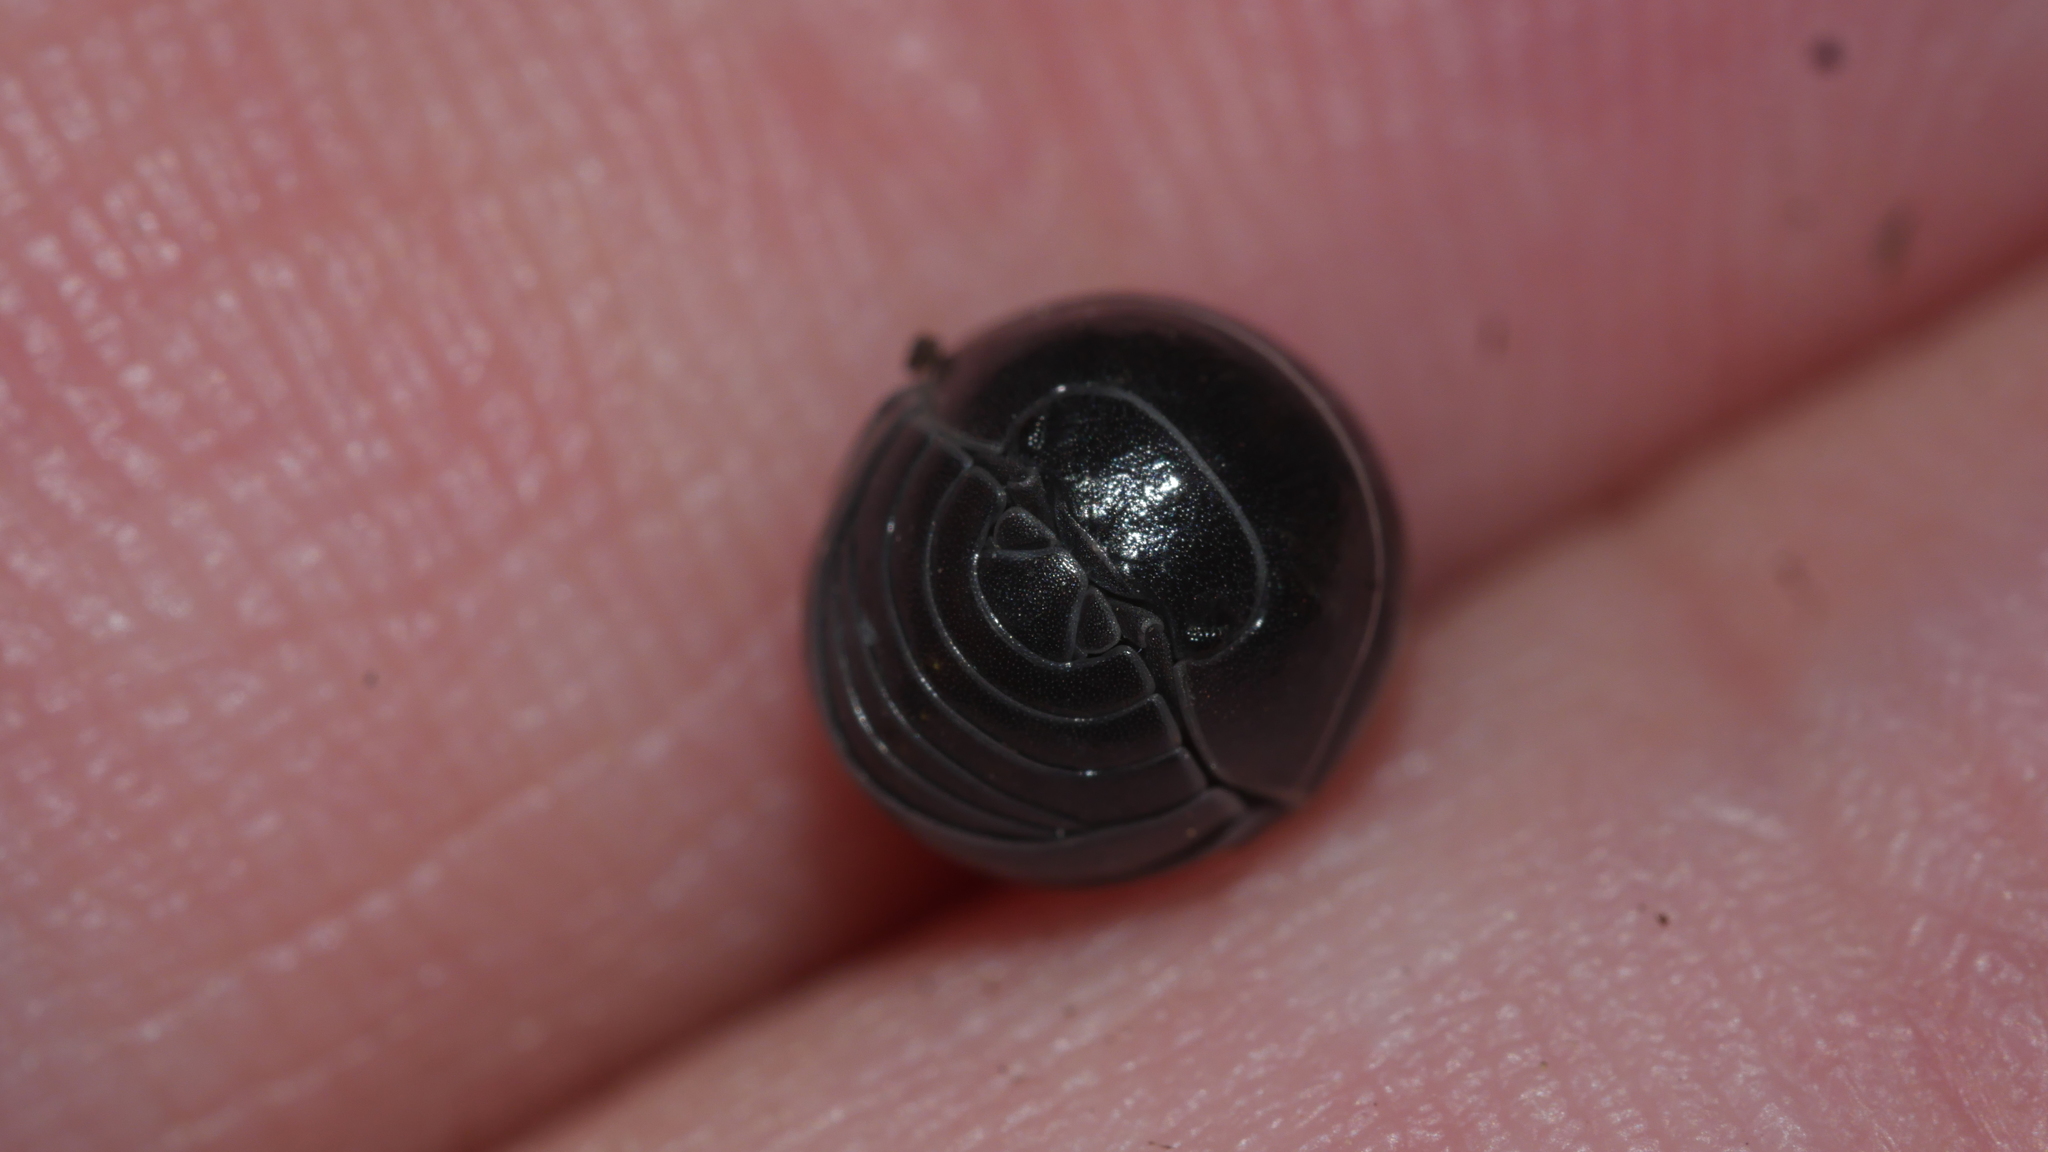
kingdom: Animalia
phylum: Arthropoda
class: Malacostraca
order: Isopoda
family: Armadillidiidae
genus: Armadillidium
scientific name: Armadillidium vulgare
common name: Common pill woodlouse
